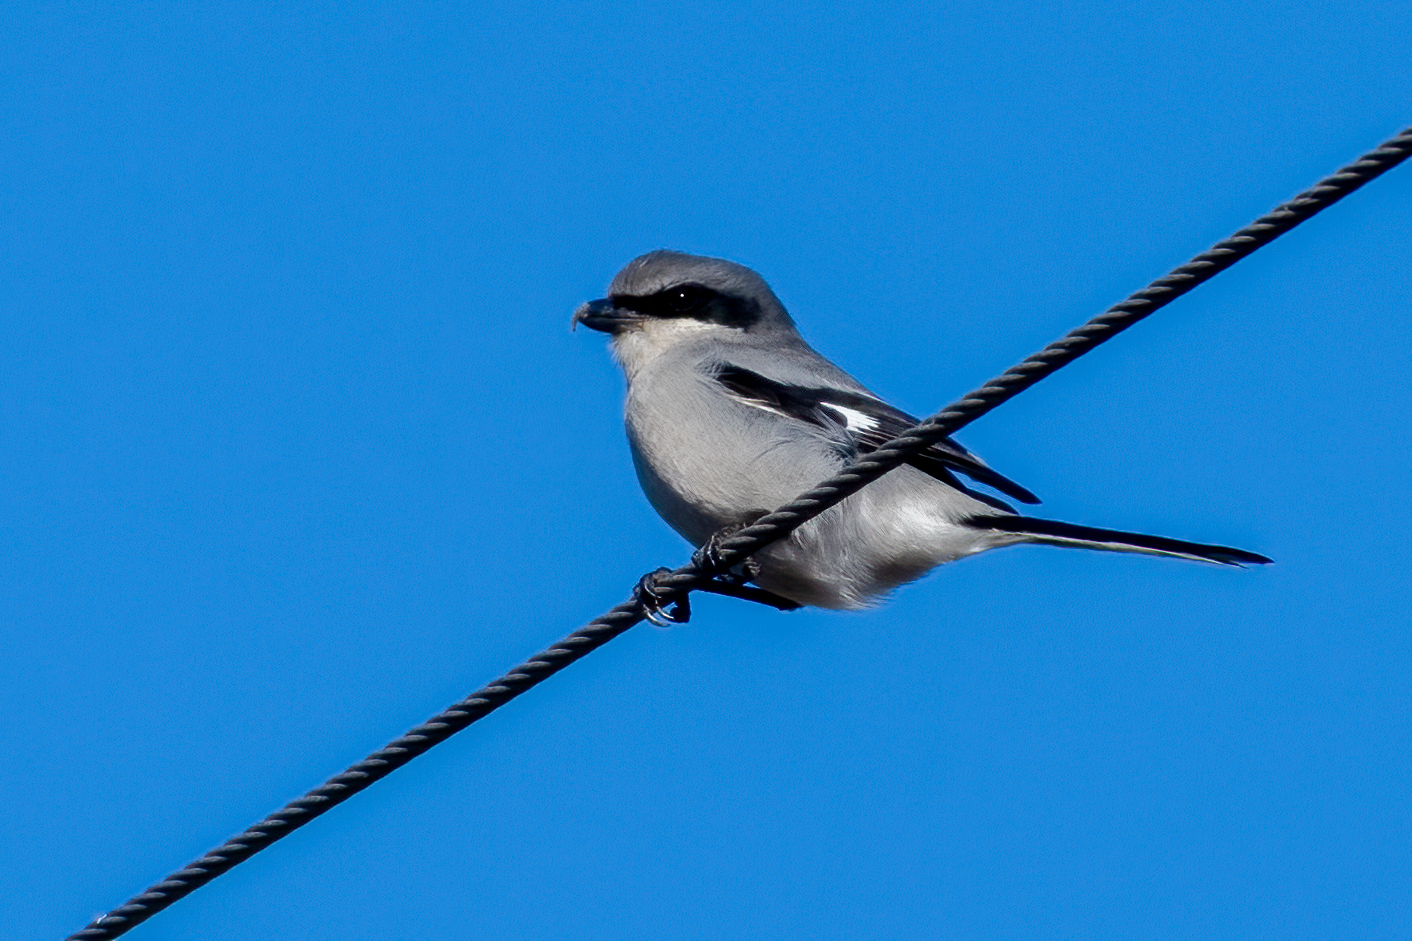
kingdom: Animalia
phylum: Chordata
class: Aves
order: Passeriformes
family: Laniidae
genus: Lanius
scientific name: Lanius ludovicianus
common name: Loggerhead shrike
